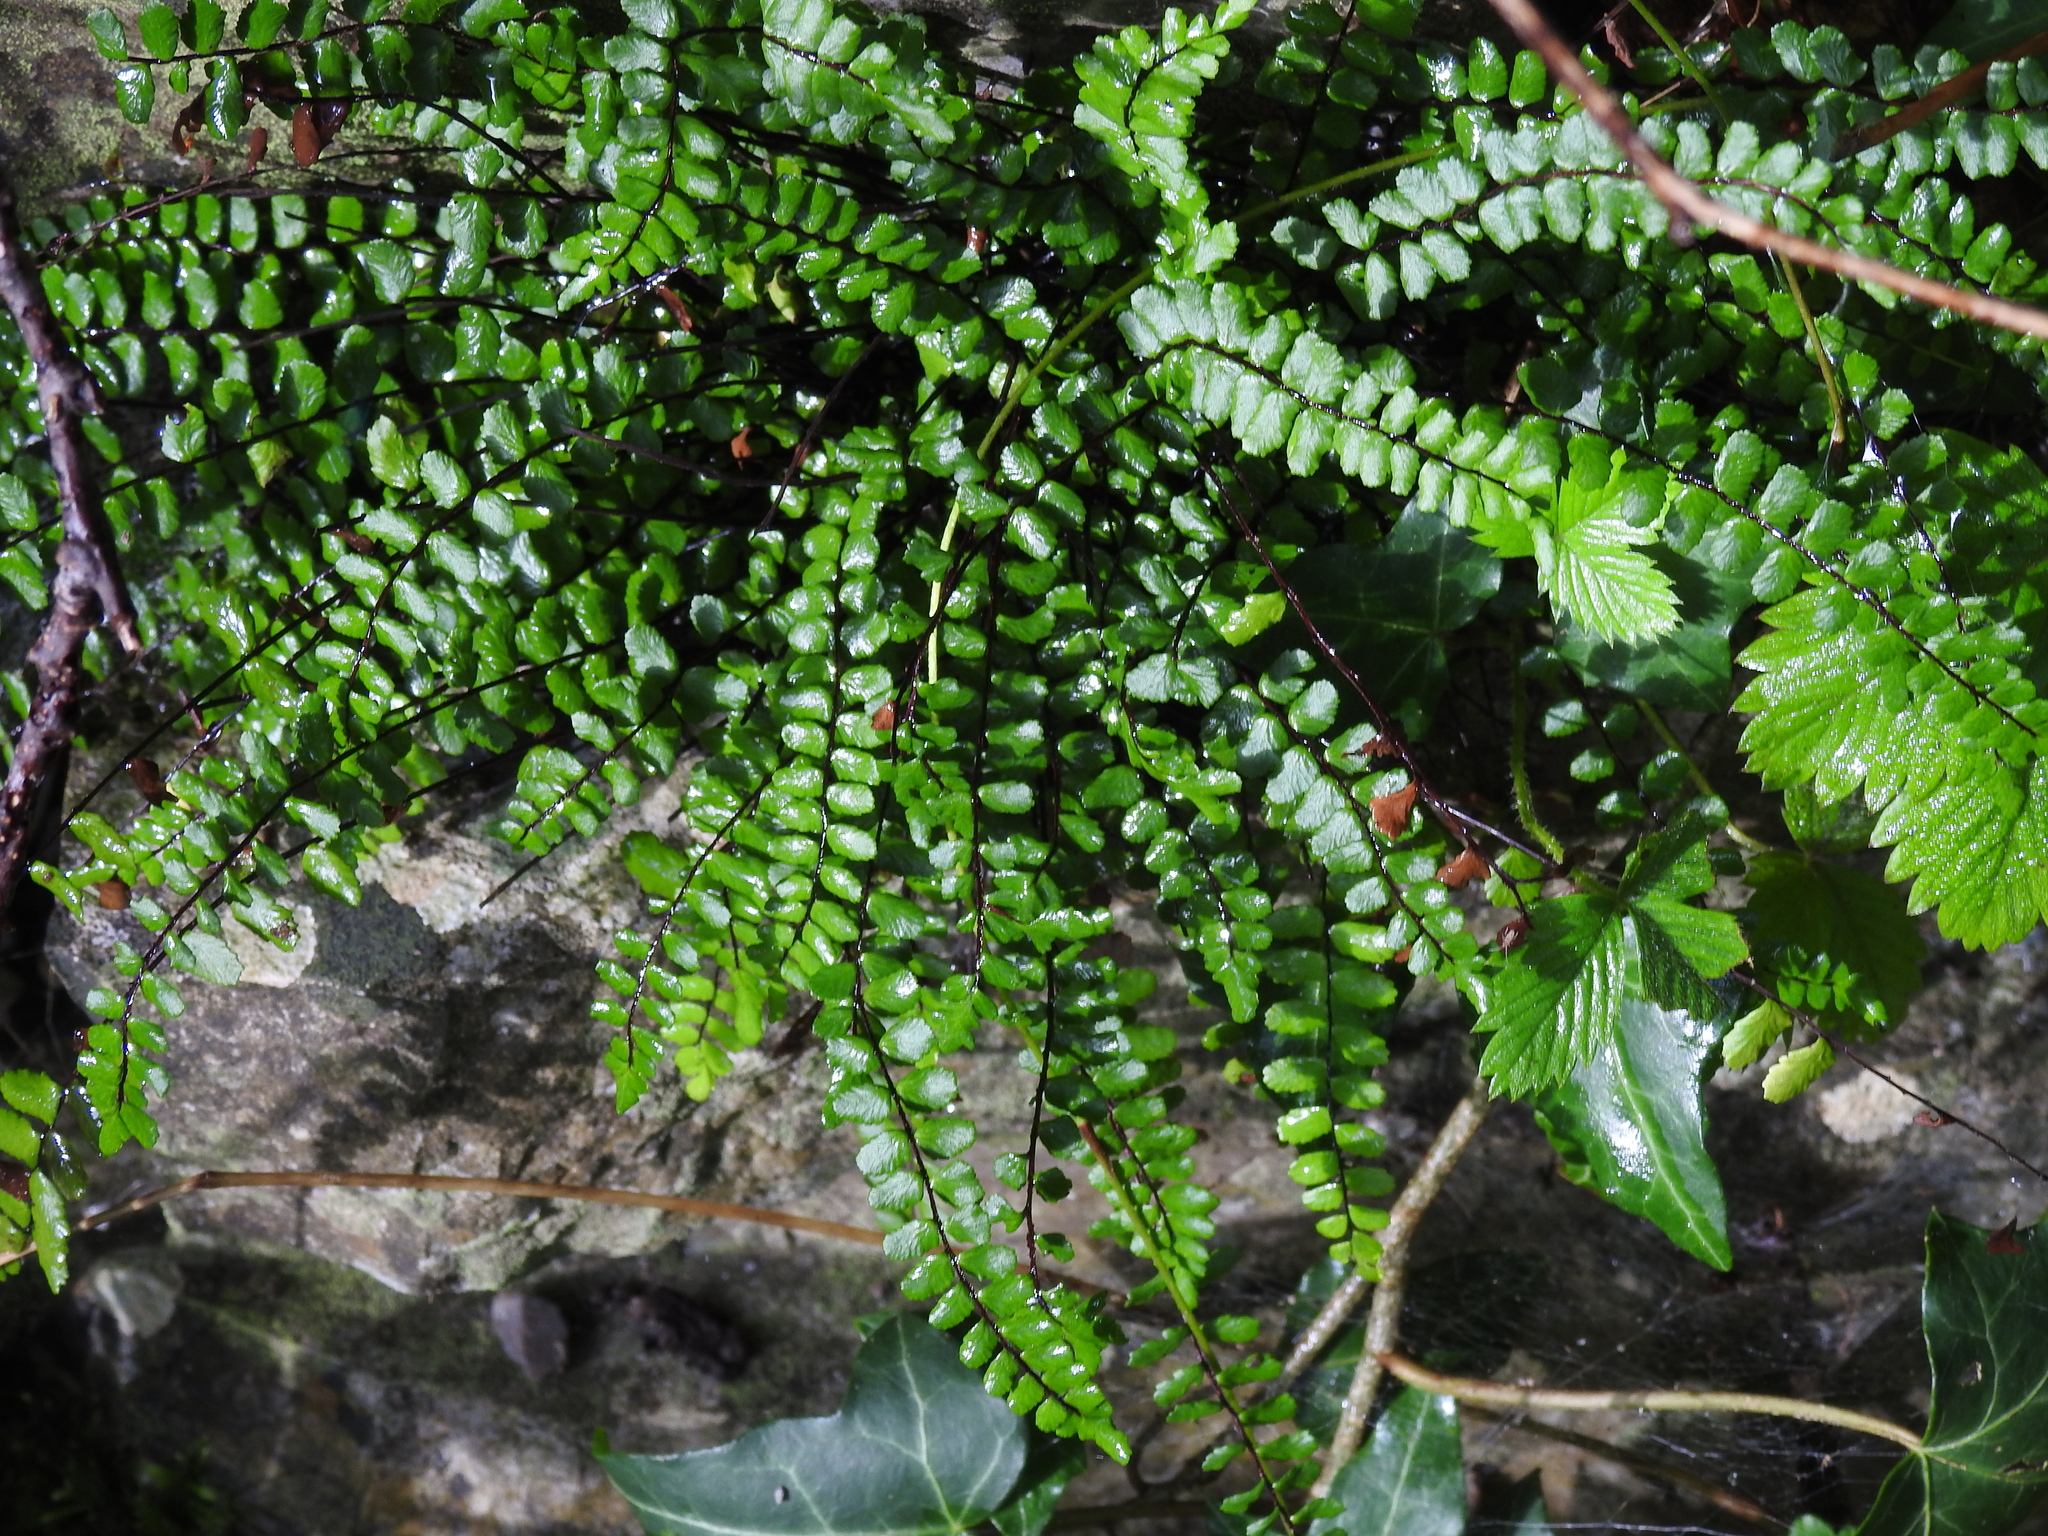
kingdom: Plantae
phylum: Tracheophyta
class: Polypodiopsida
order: Polypodiales
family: Aspleniaceae
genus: Asplenium
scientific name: Asplenium trichomanes
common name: Maidenhair spleenwort
